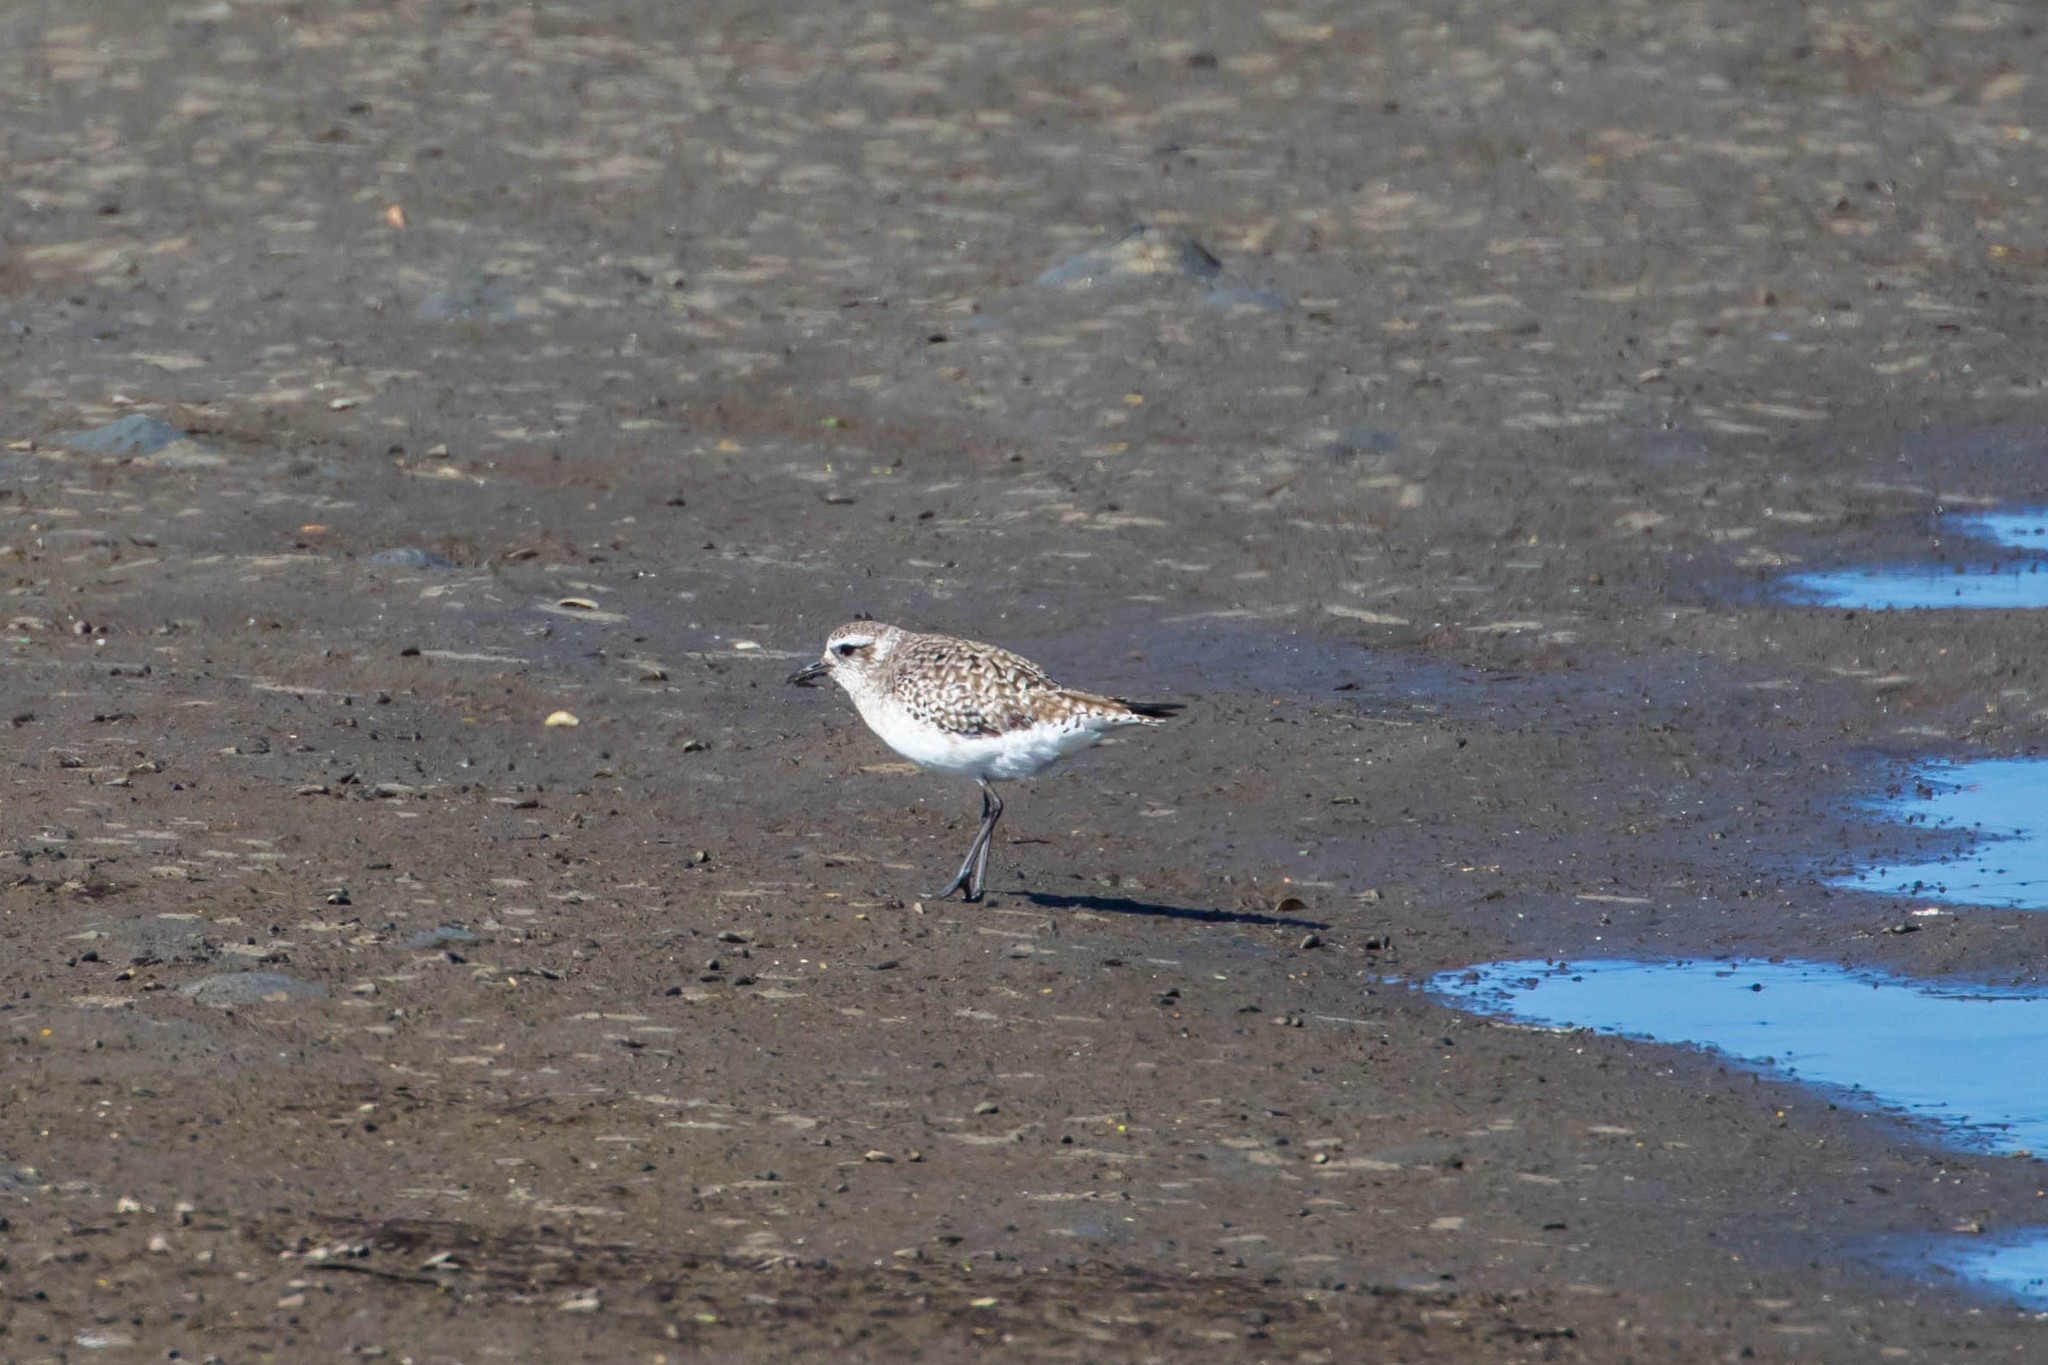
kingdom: Animalia
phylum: Chordata
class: Aves
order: Charadriiformes
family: Charadriidae
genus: Pluvialis
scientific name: Pluvialis squatarola
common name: Grey plover
